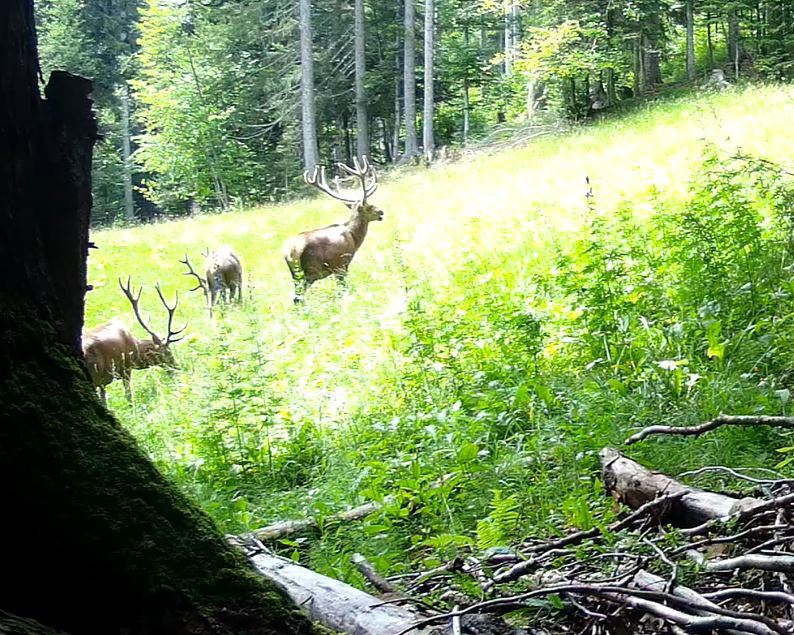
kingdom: Animalia
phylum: Chordata
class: Mammalia
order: Artiodactyla
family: Cervidae
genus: Cervus
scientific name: Cervus elaphus
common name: Red deer
